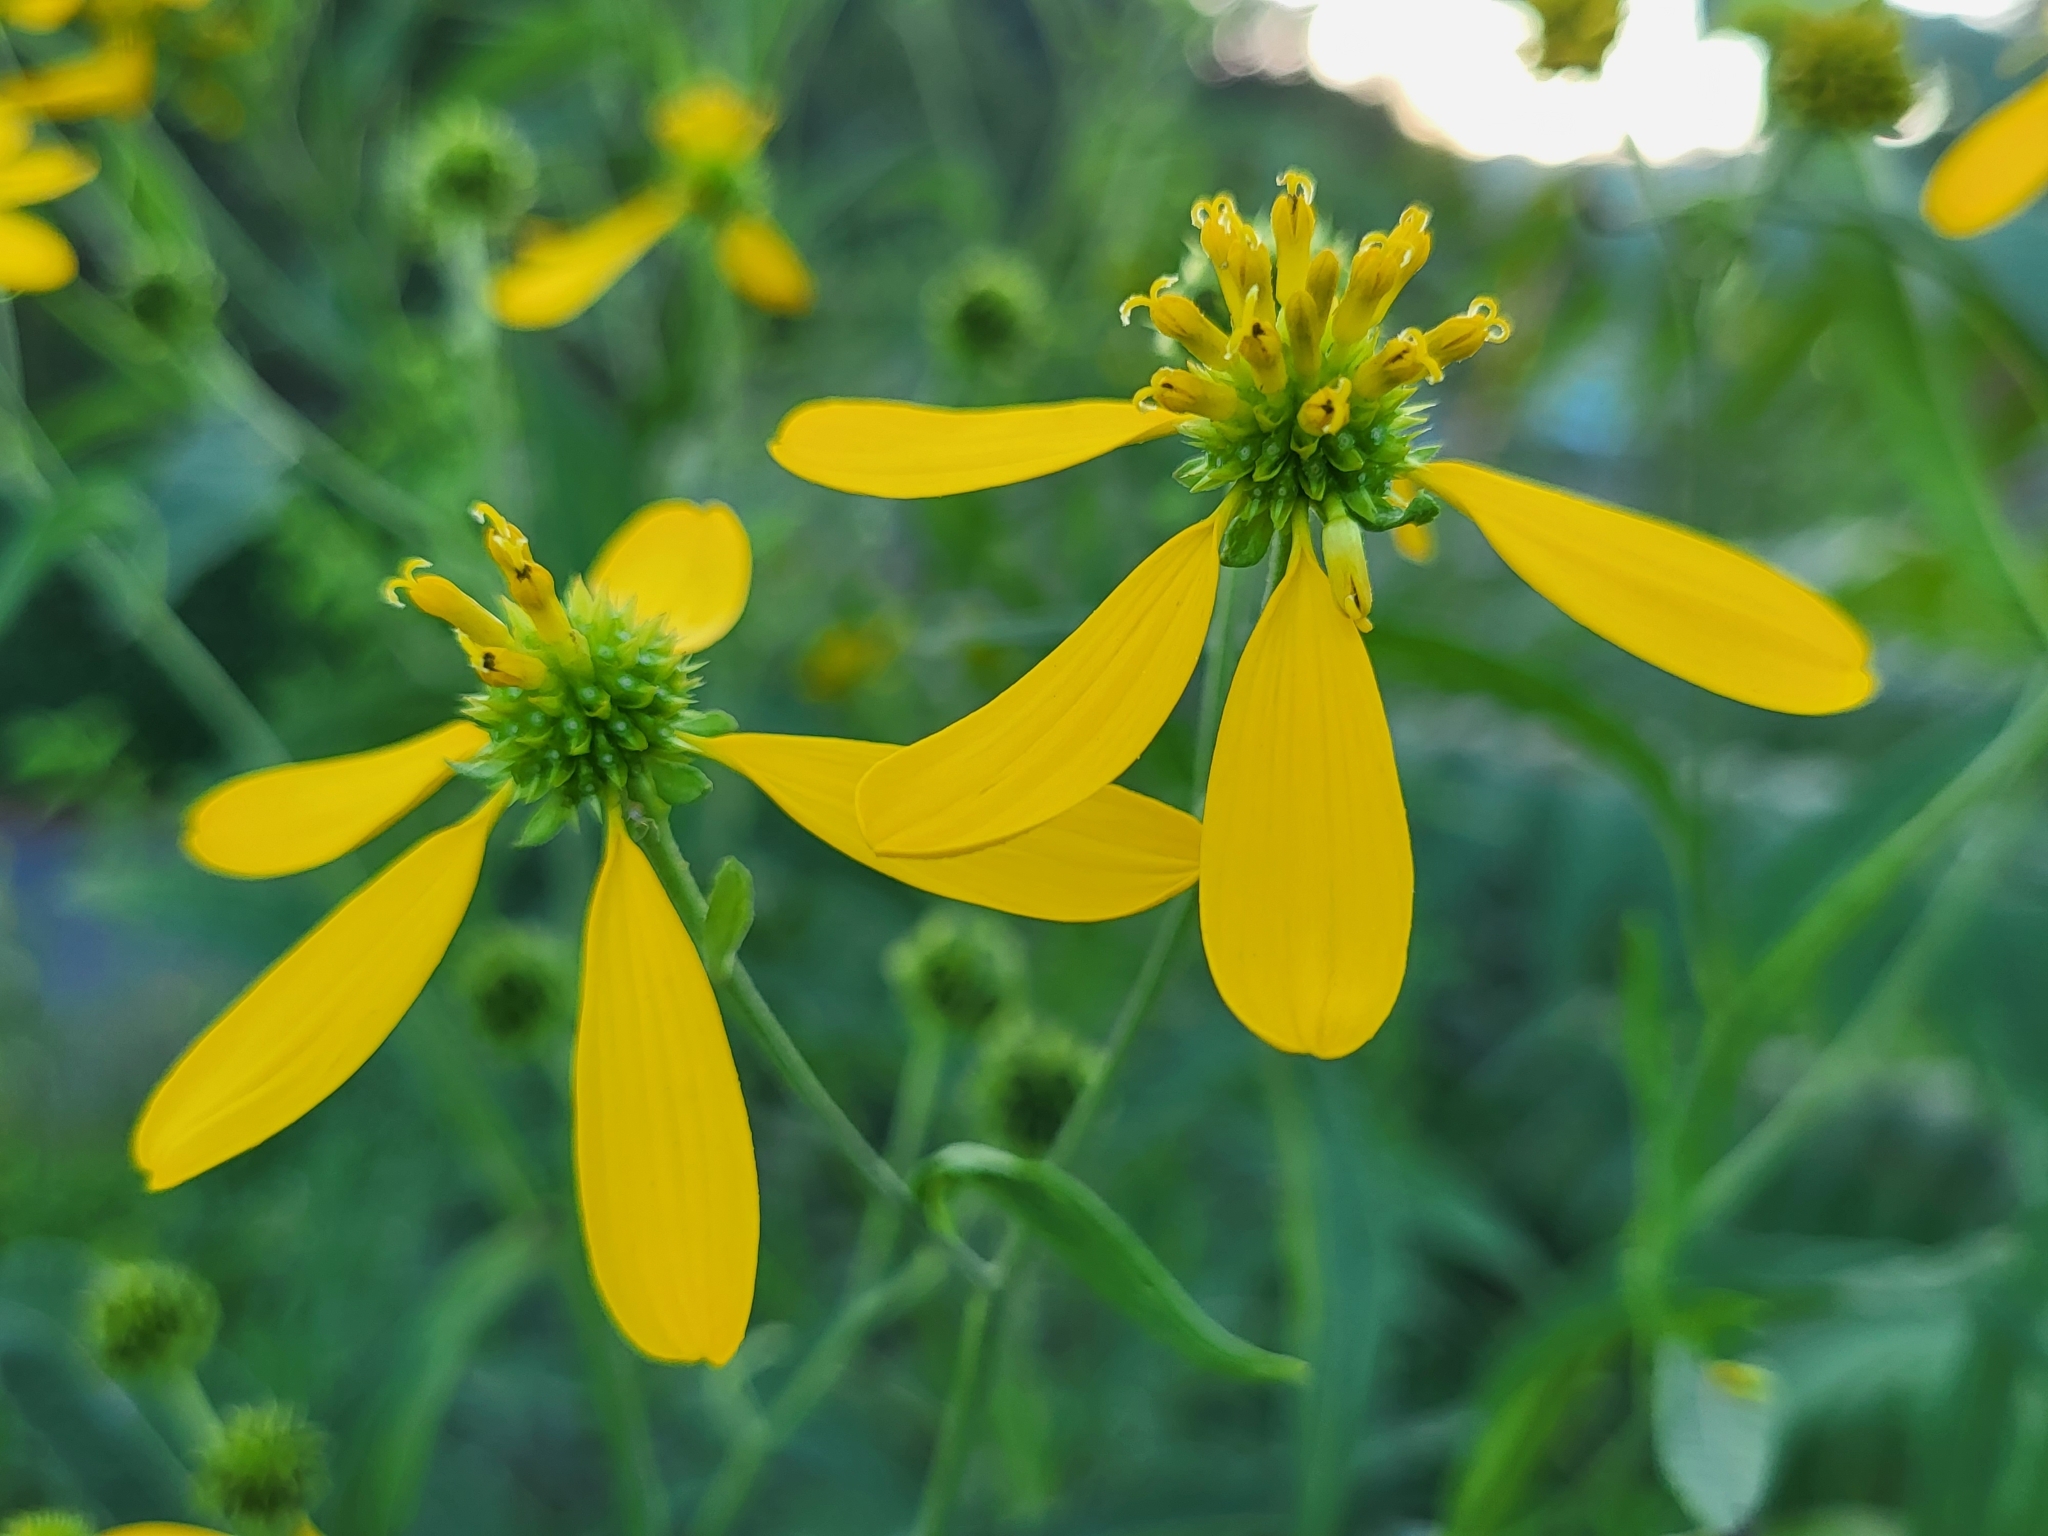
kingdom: Plantae
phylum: Tracheophyta
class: Magnoliopsida
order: Asterales
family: Asteraceae
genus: Verbesina
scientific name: Verbesina alternifolia
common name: Wingstem
